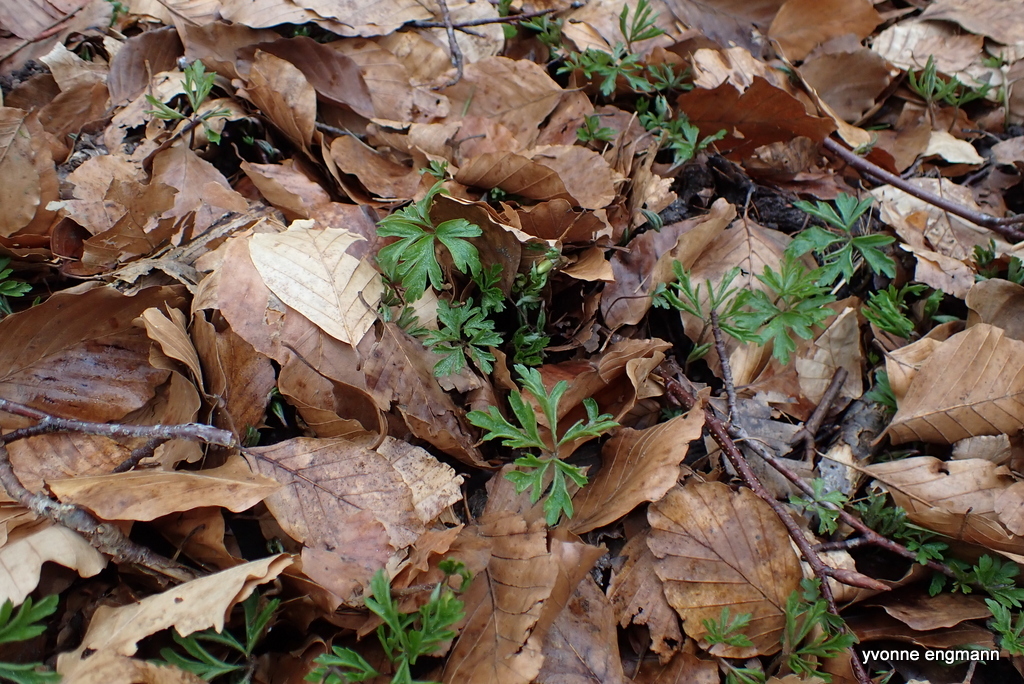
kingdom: Plantae
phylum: Tracheophyta
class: Magnoliopsida
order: Ranunculales
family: Ranunculaceae
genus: Anemone
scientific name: Anemone nemorosa
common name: Wood anemone
